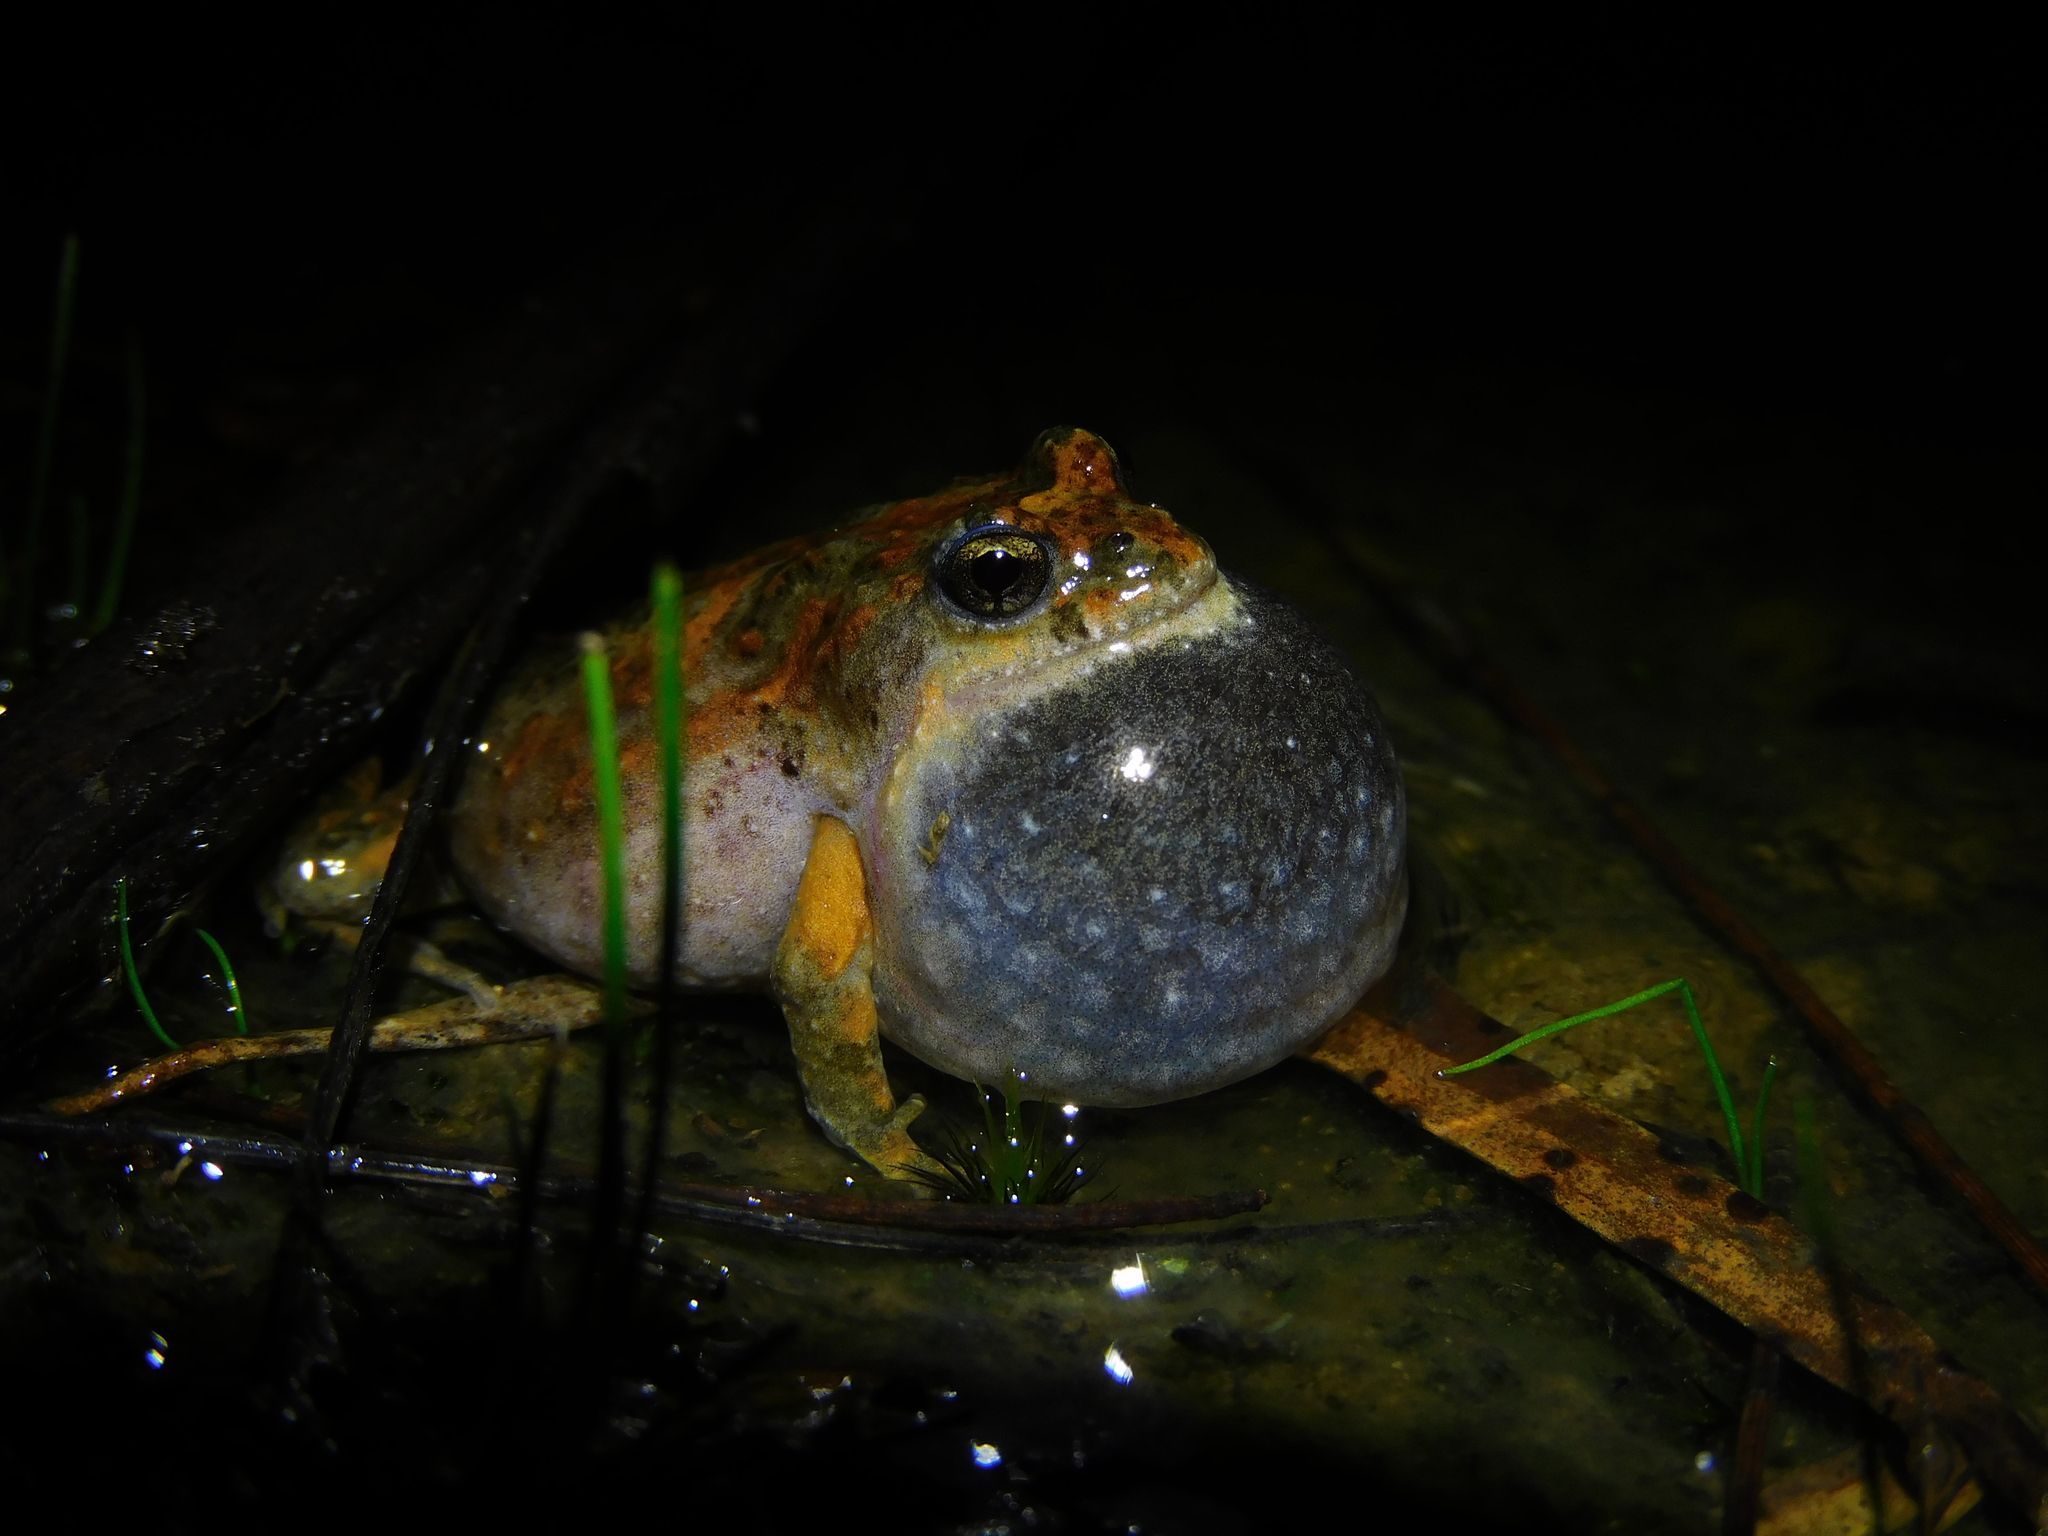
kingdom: Animalia
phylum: Chordata
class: Amphibia
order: Anura
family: Myobatrachidae
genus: Crinia
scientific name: Crinia signifera
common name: Brown froglet
